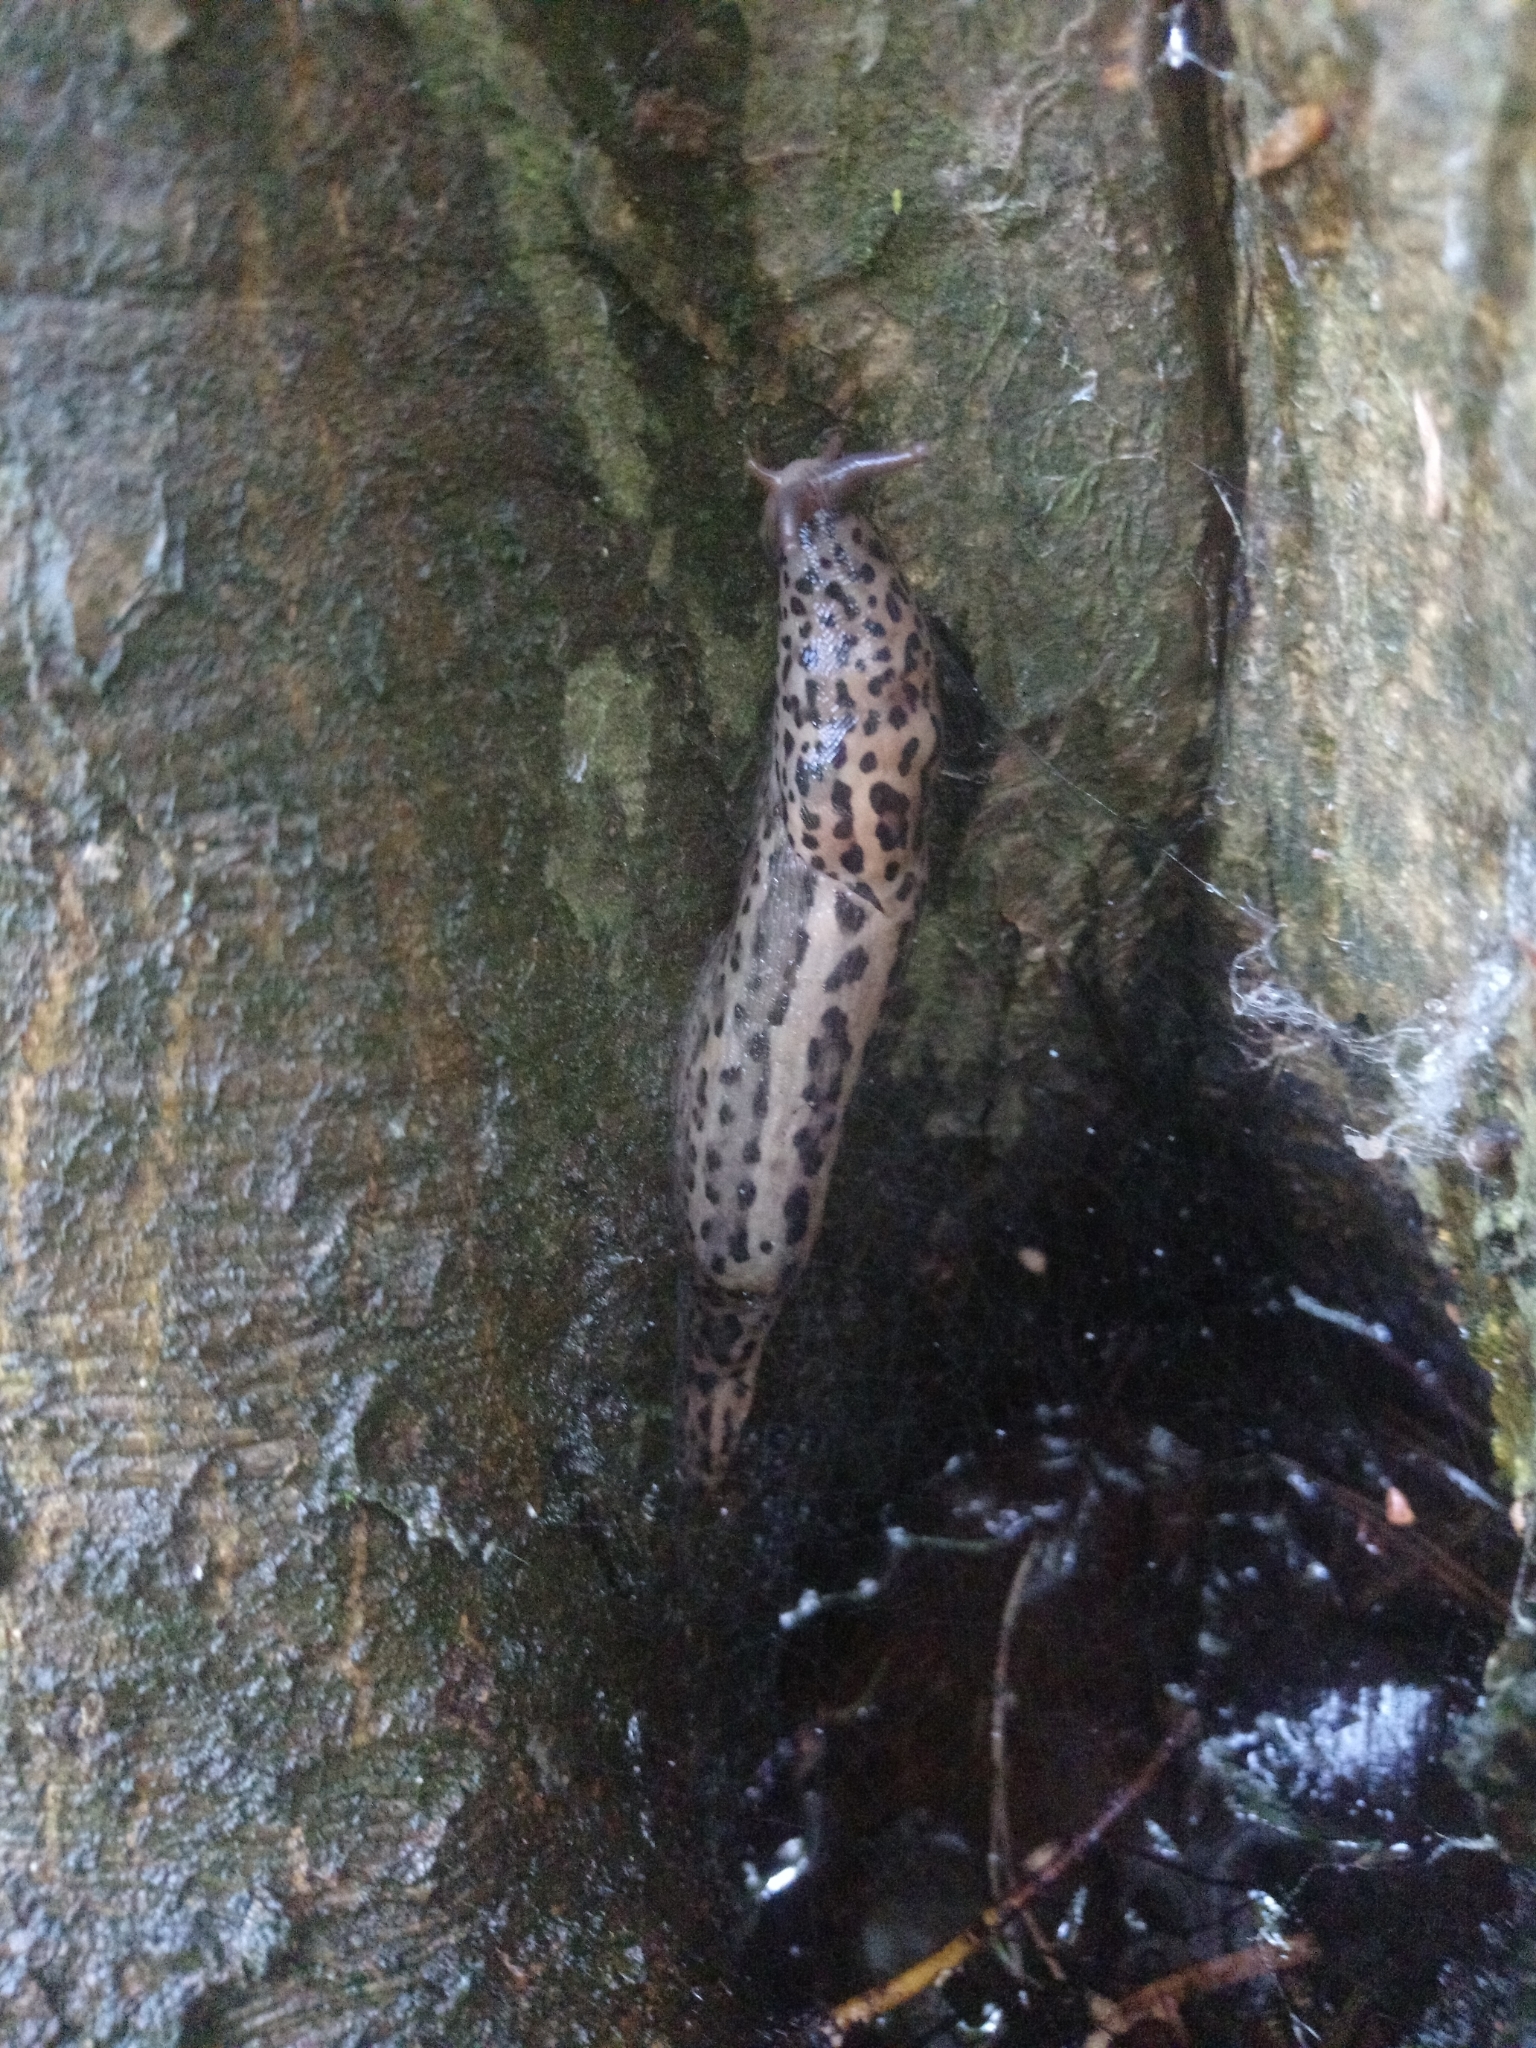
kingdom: Animalia
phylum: Mollusca
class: Gastropoda
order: Stylommatophora
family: Limacidae
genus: Limax
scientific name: Limax maximus
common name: Great grey slug
